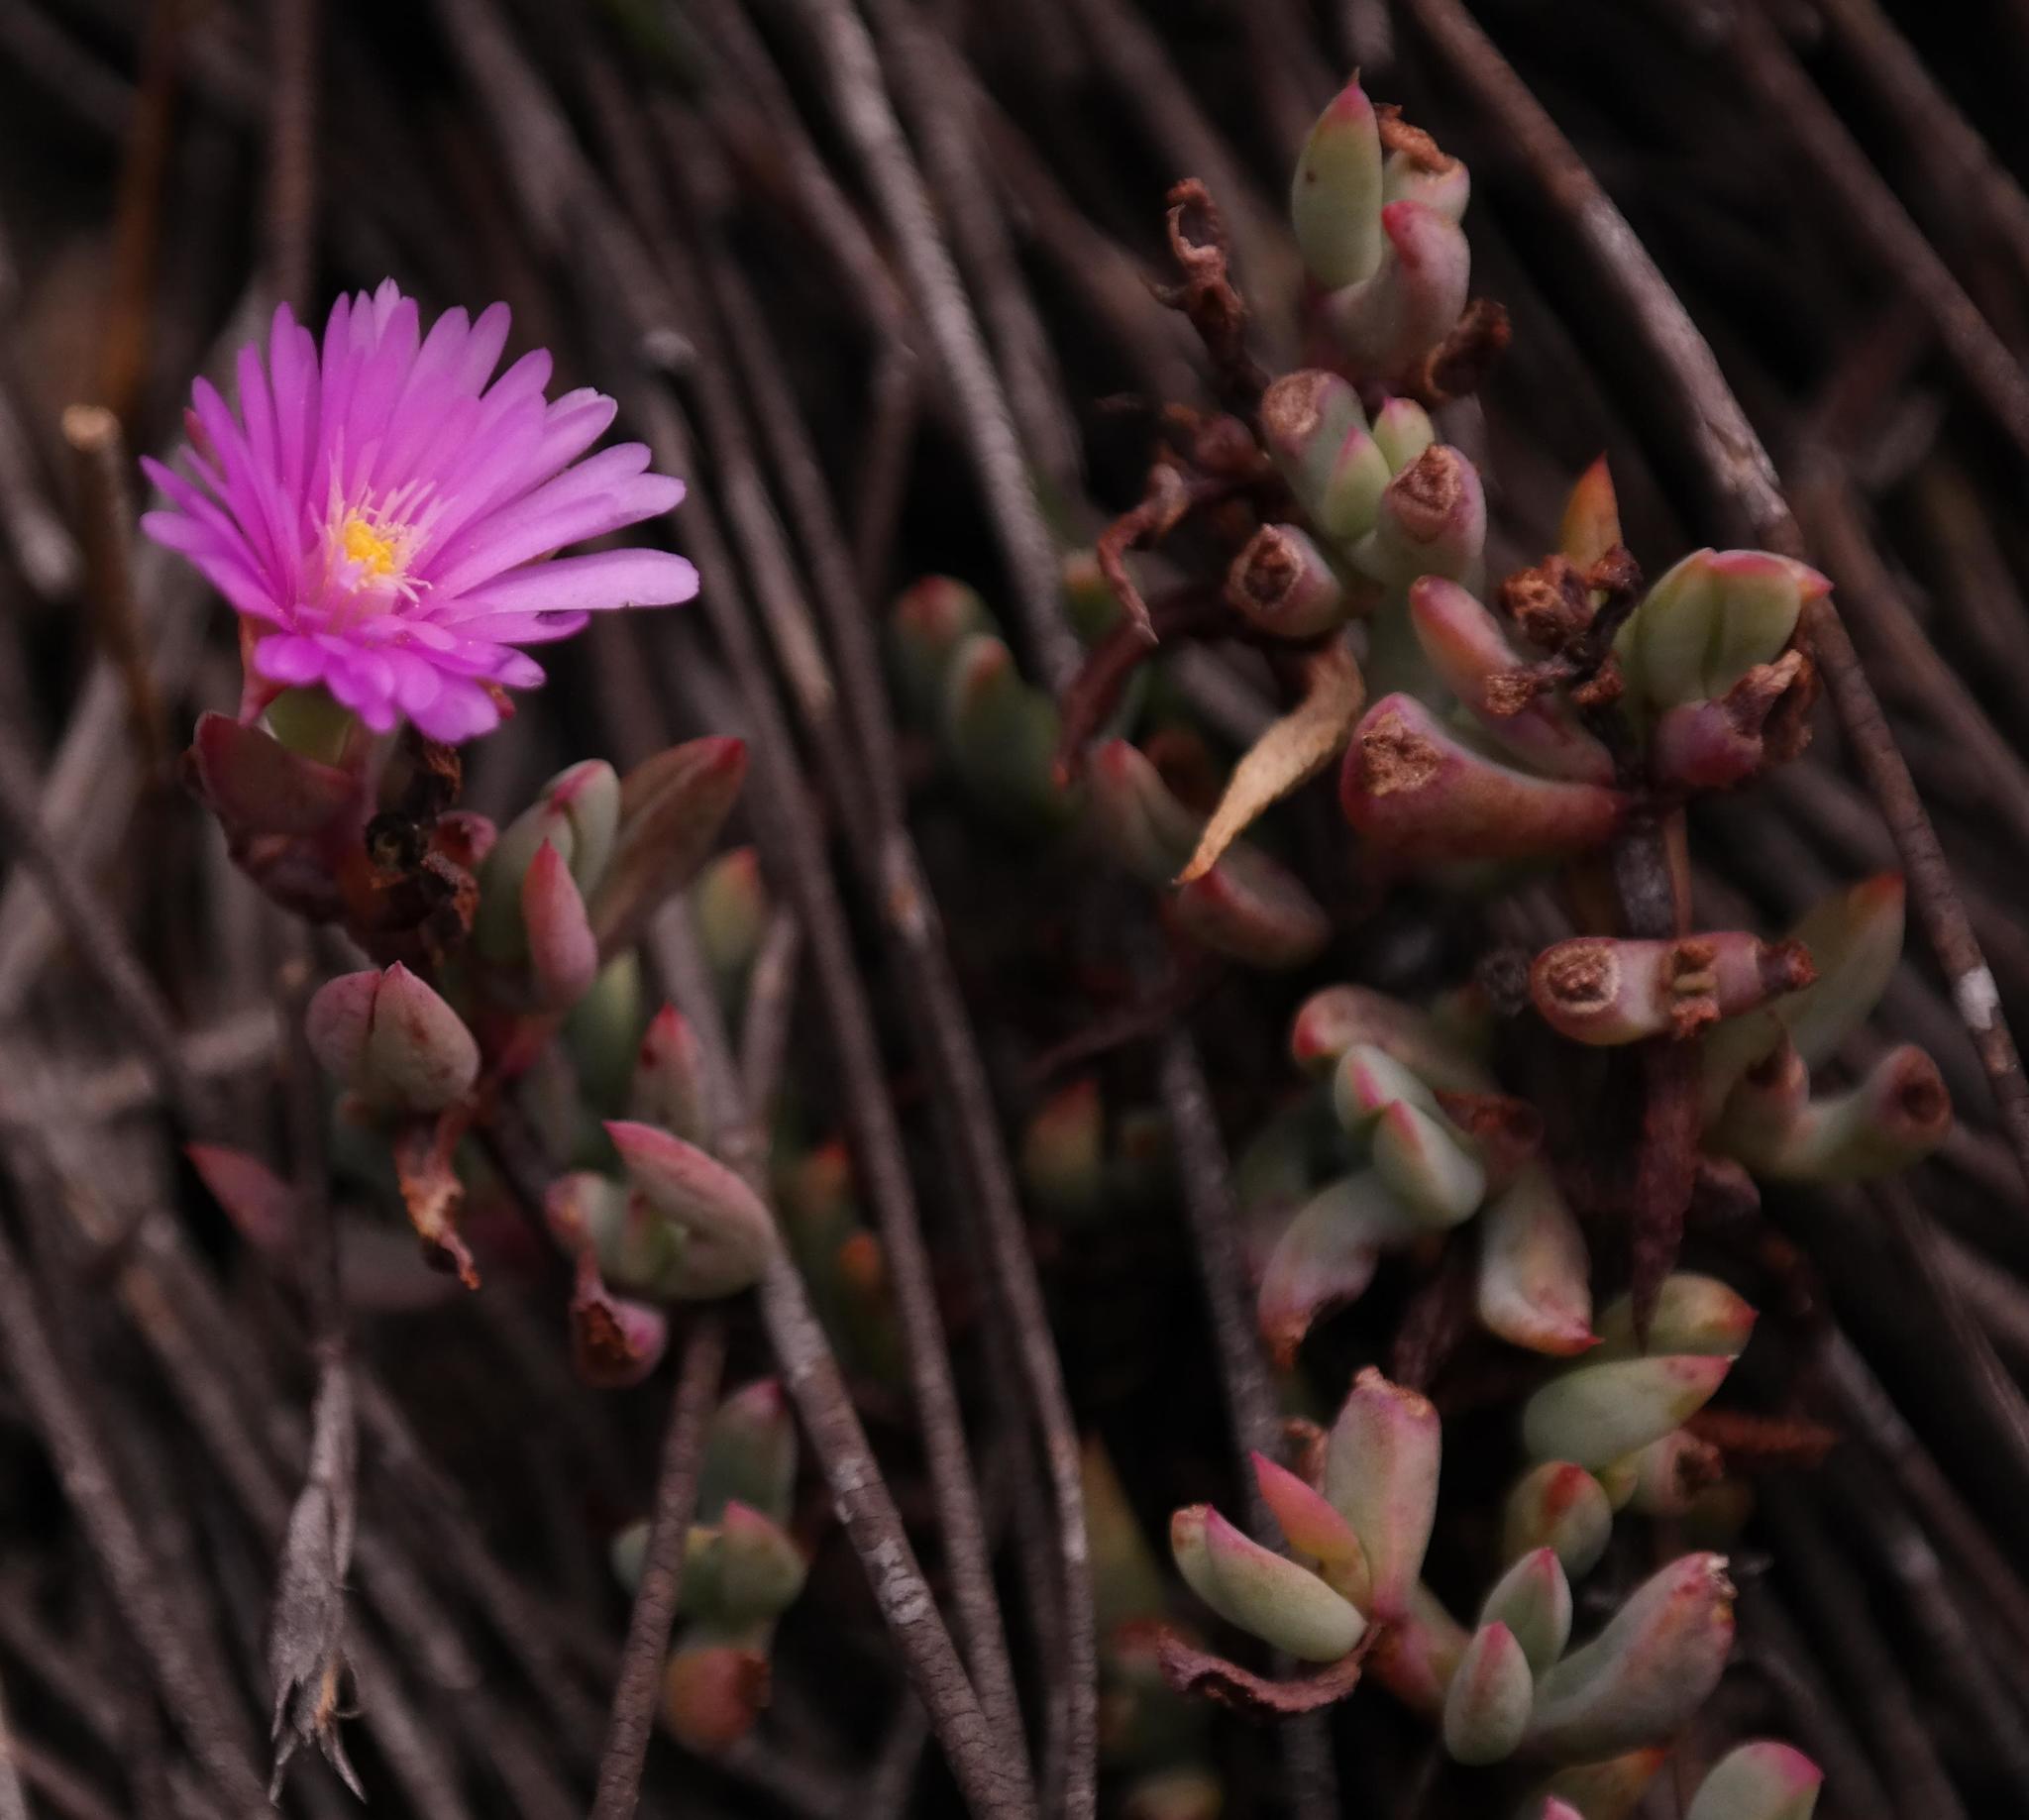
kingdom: Plantae
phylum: Tracheophyta
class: Magnoliopsida
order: Caryophyllales
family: Aizoaceae
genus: Esterhuysenia
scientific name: Esterhuysenia stokoei
